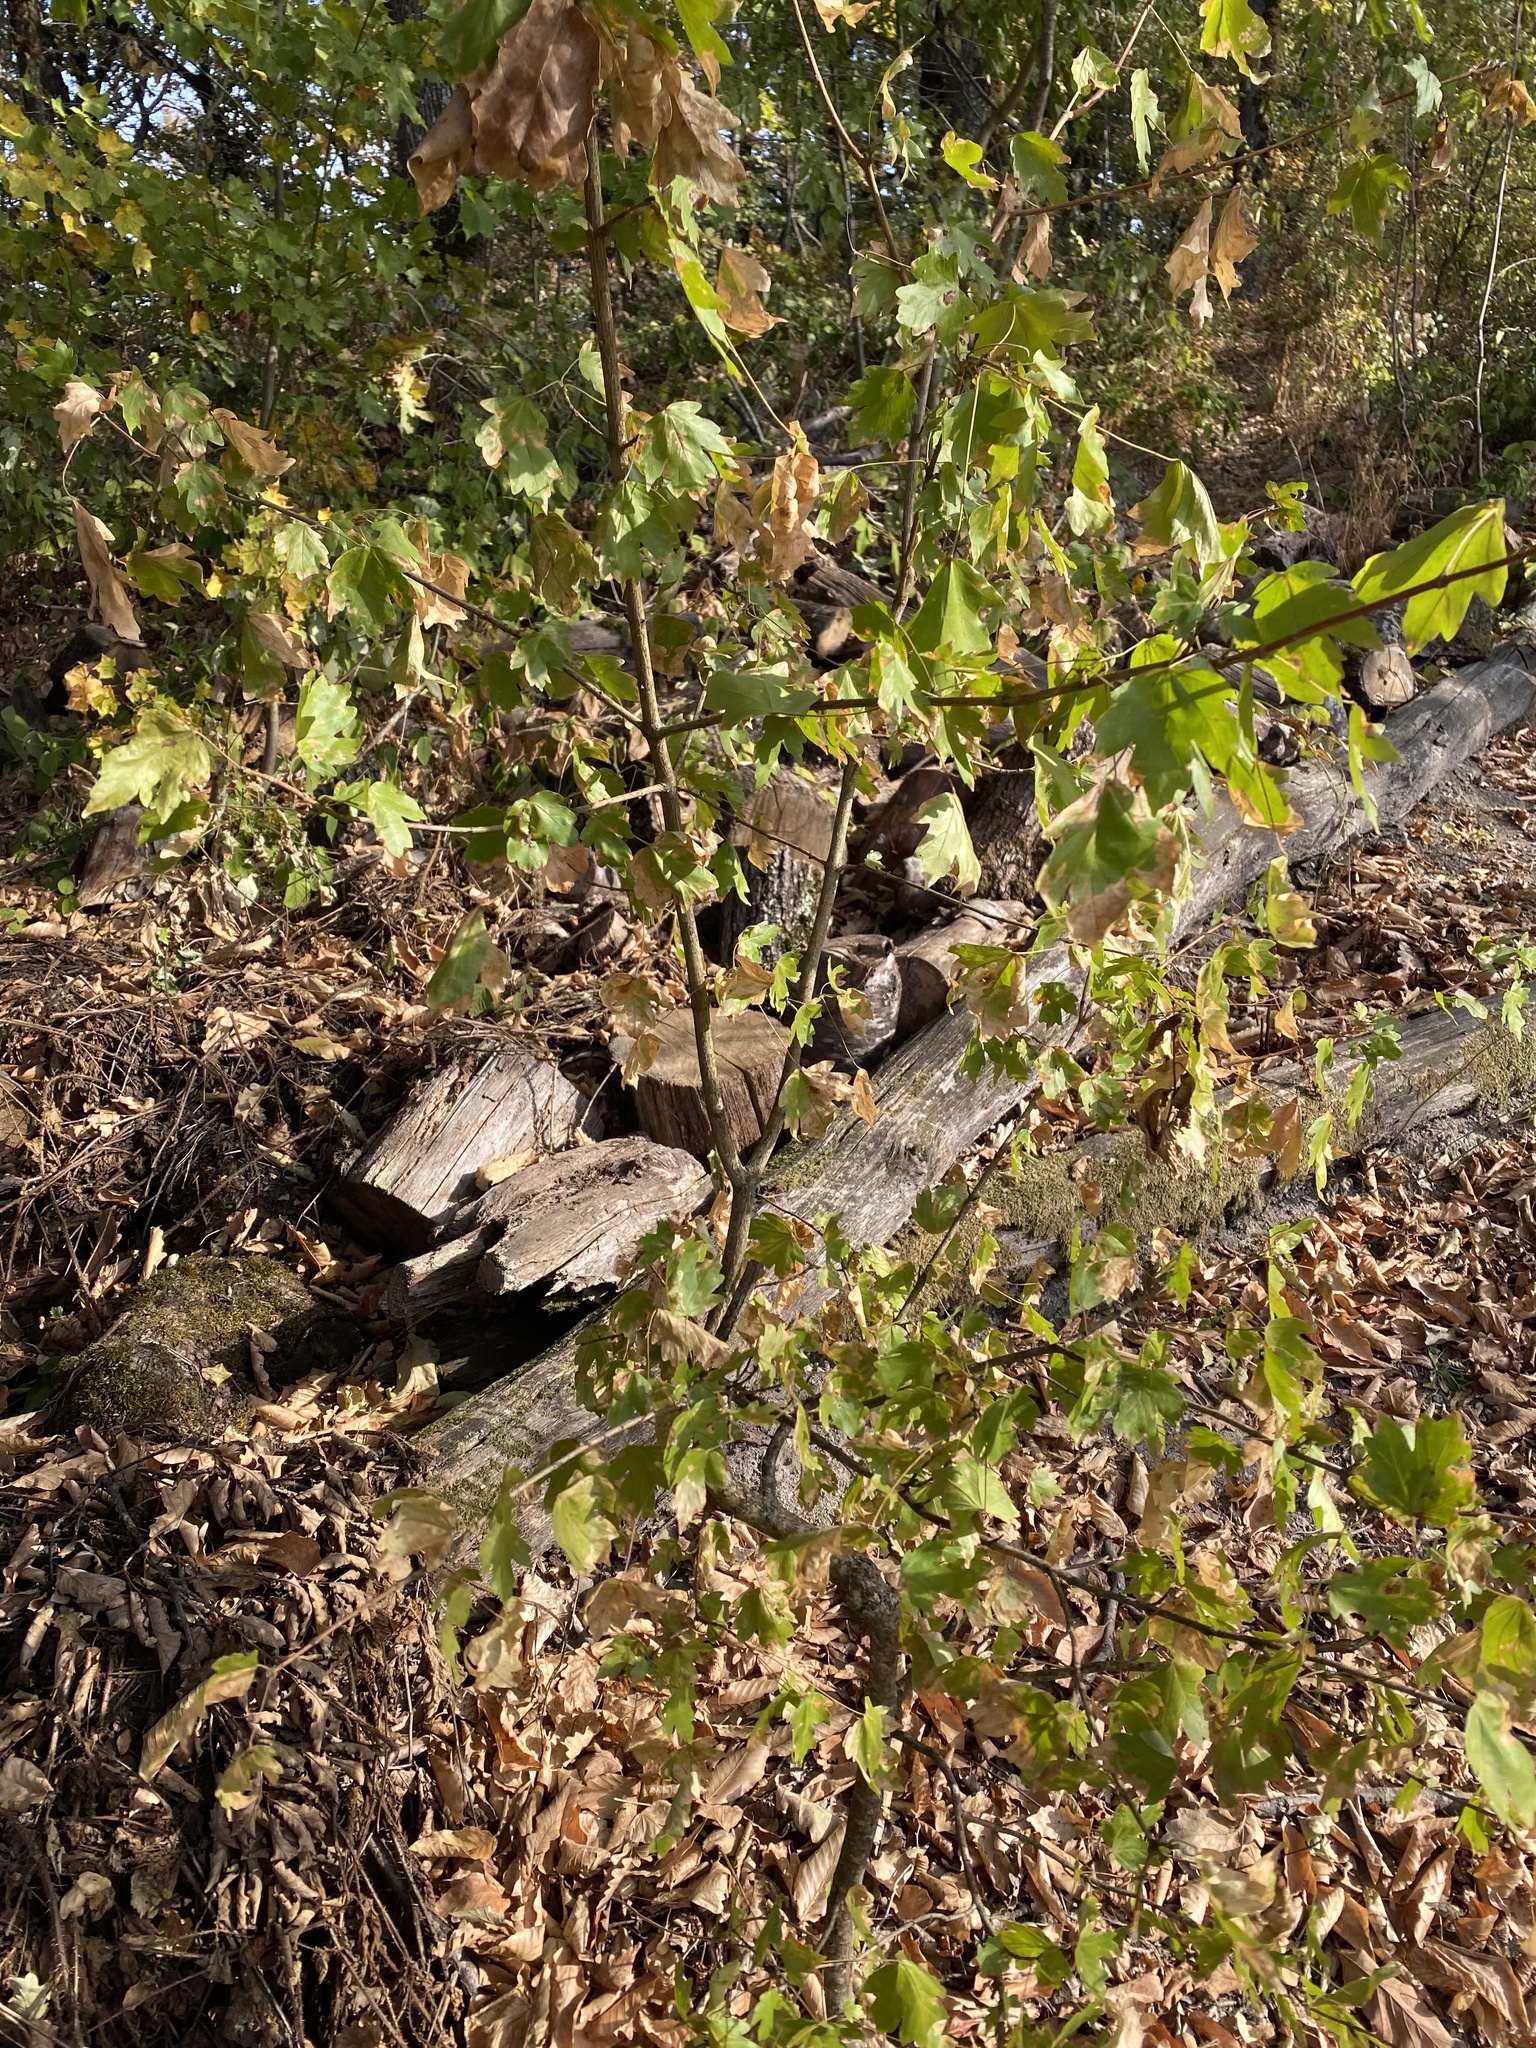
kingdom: Plantae
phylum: Tracheophyta
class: Magnoliopsida
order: Sapindales
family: Sapindaceae
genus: Acer
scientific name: Acer campestre
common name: Field maple
